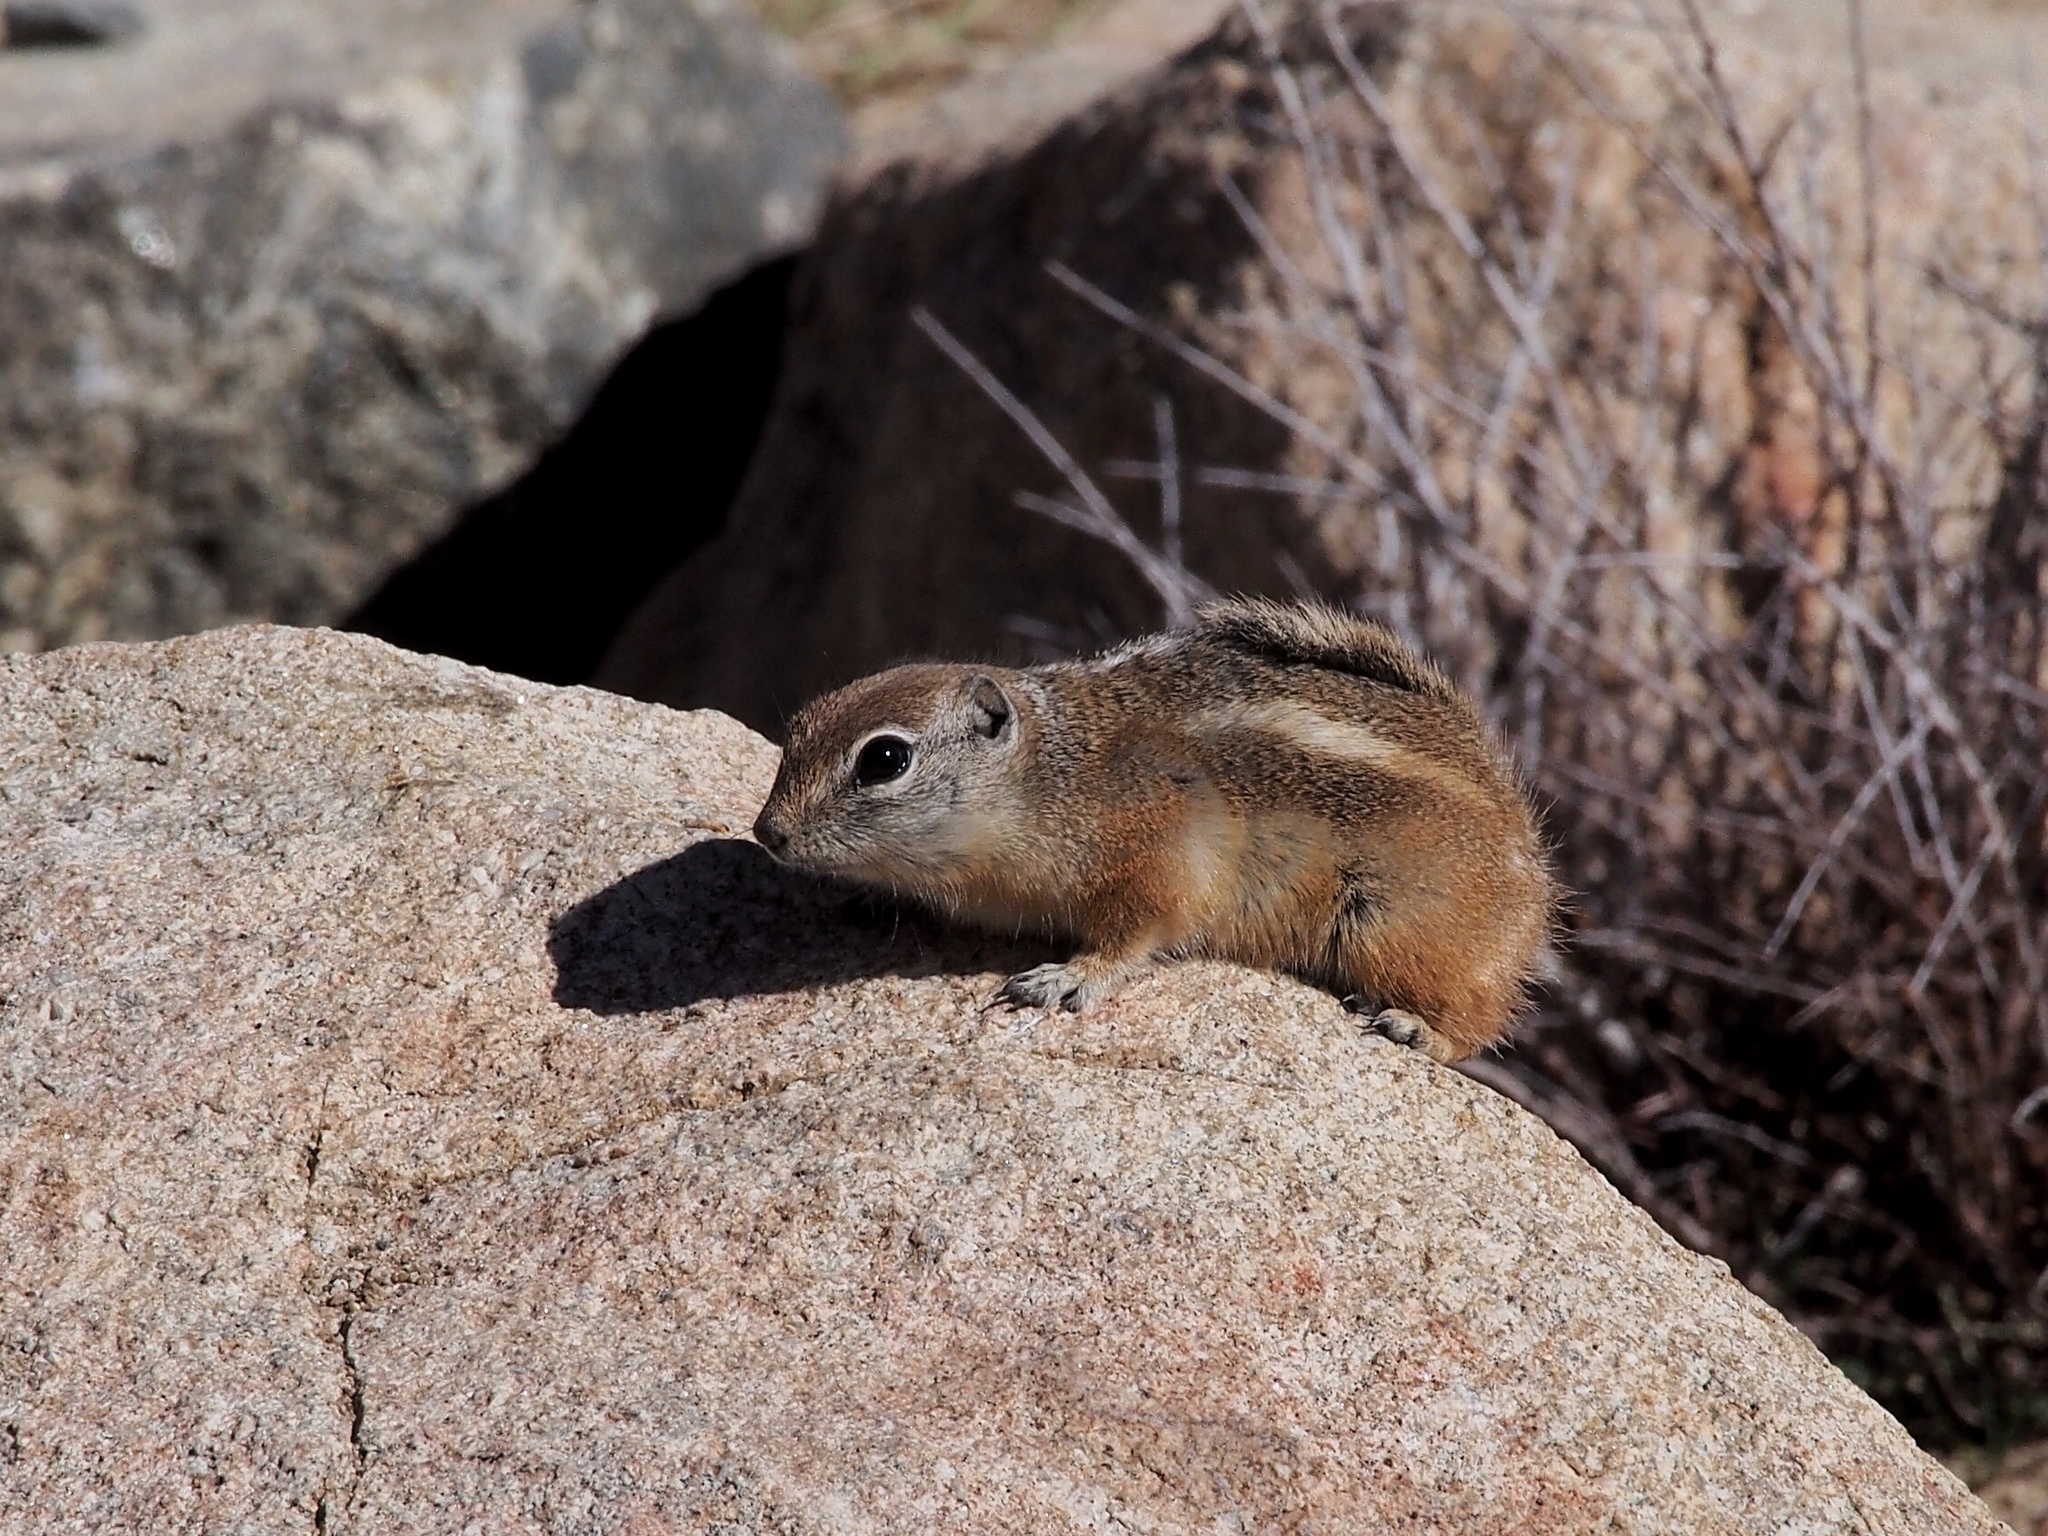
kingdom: Animalia
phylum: Chordata
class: Mammalia
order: Rodentia
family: Sciuridae
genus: Ammospermophilus
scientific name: Ammospermophilus leucurus
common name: White-tailed antelope squirrel
